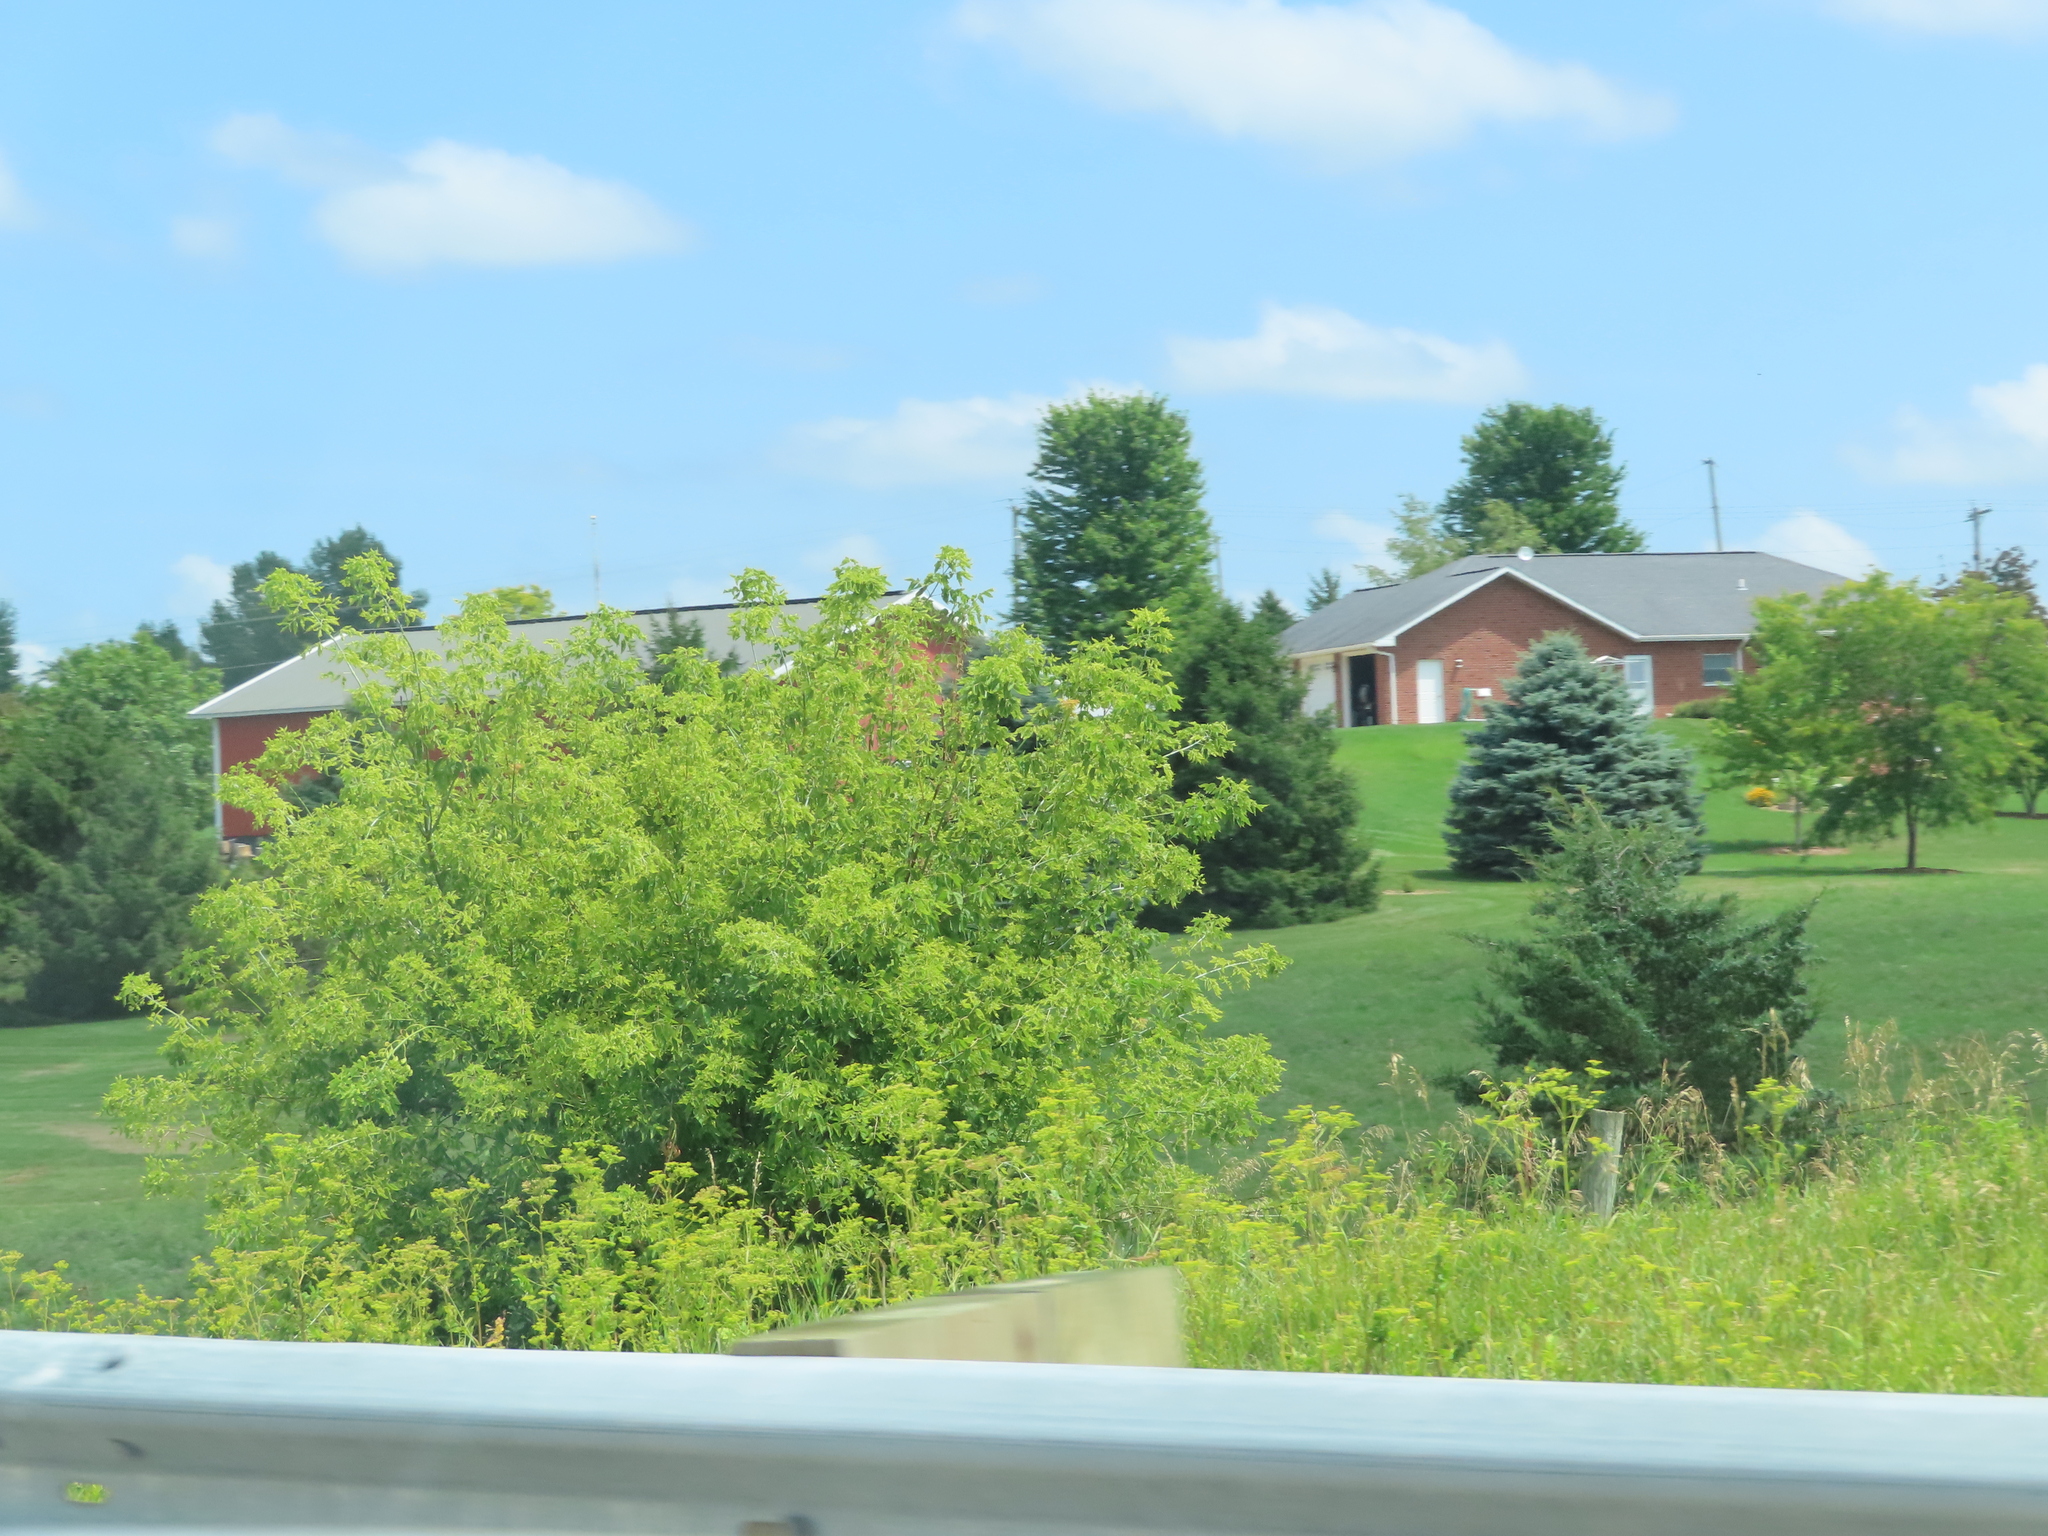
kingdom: Plantae
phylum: Tracheophyta
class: Magnoliopsida
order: Sapindales
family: Sapindaceae
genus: Acer
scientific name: Acer negundo
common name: Ashleaf maple
